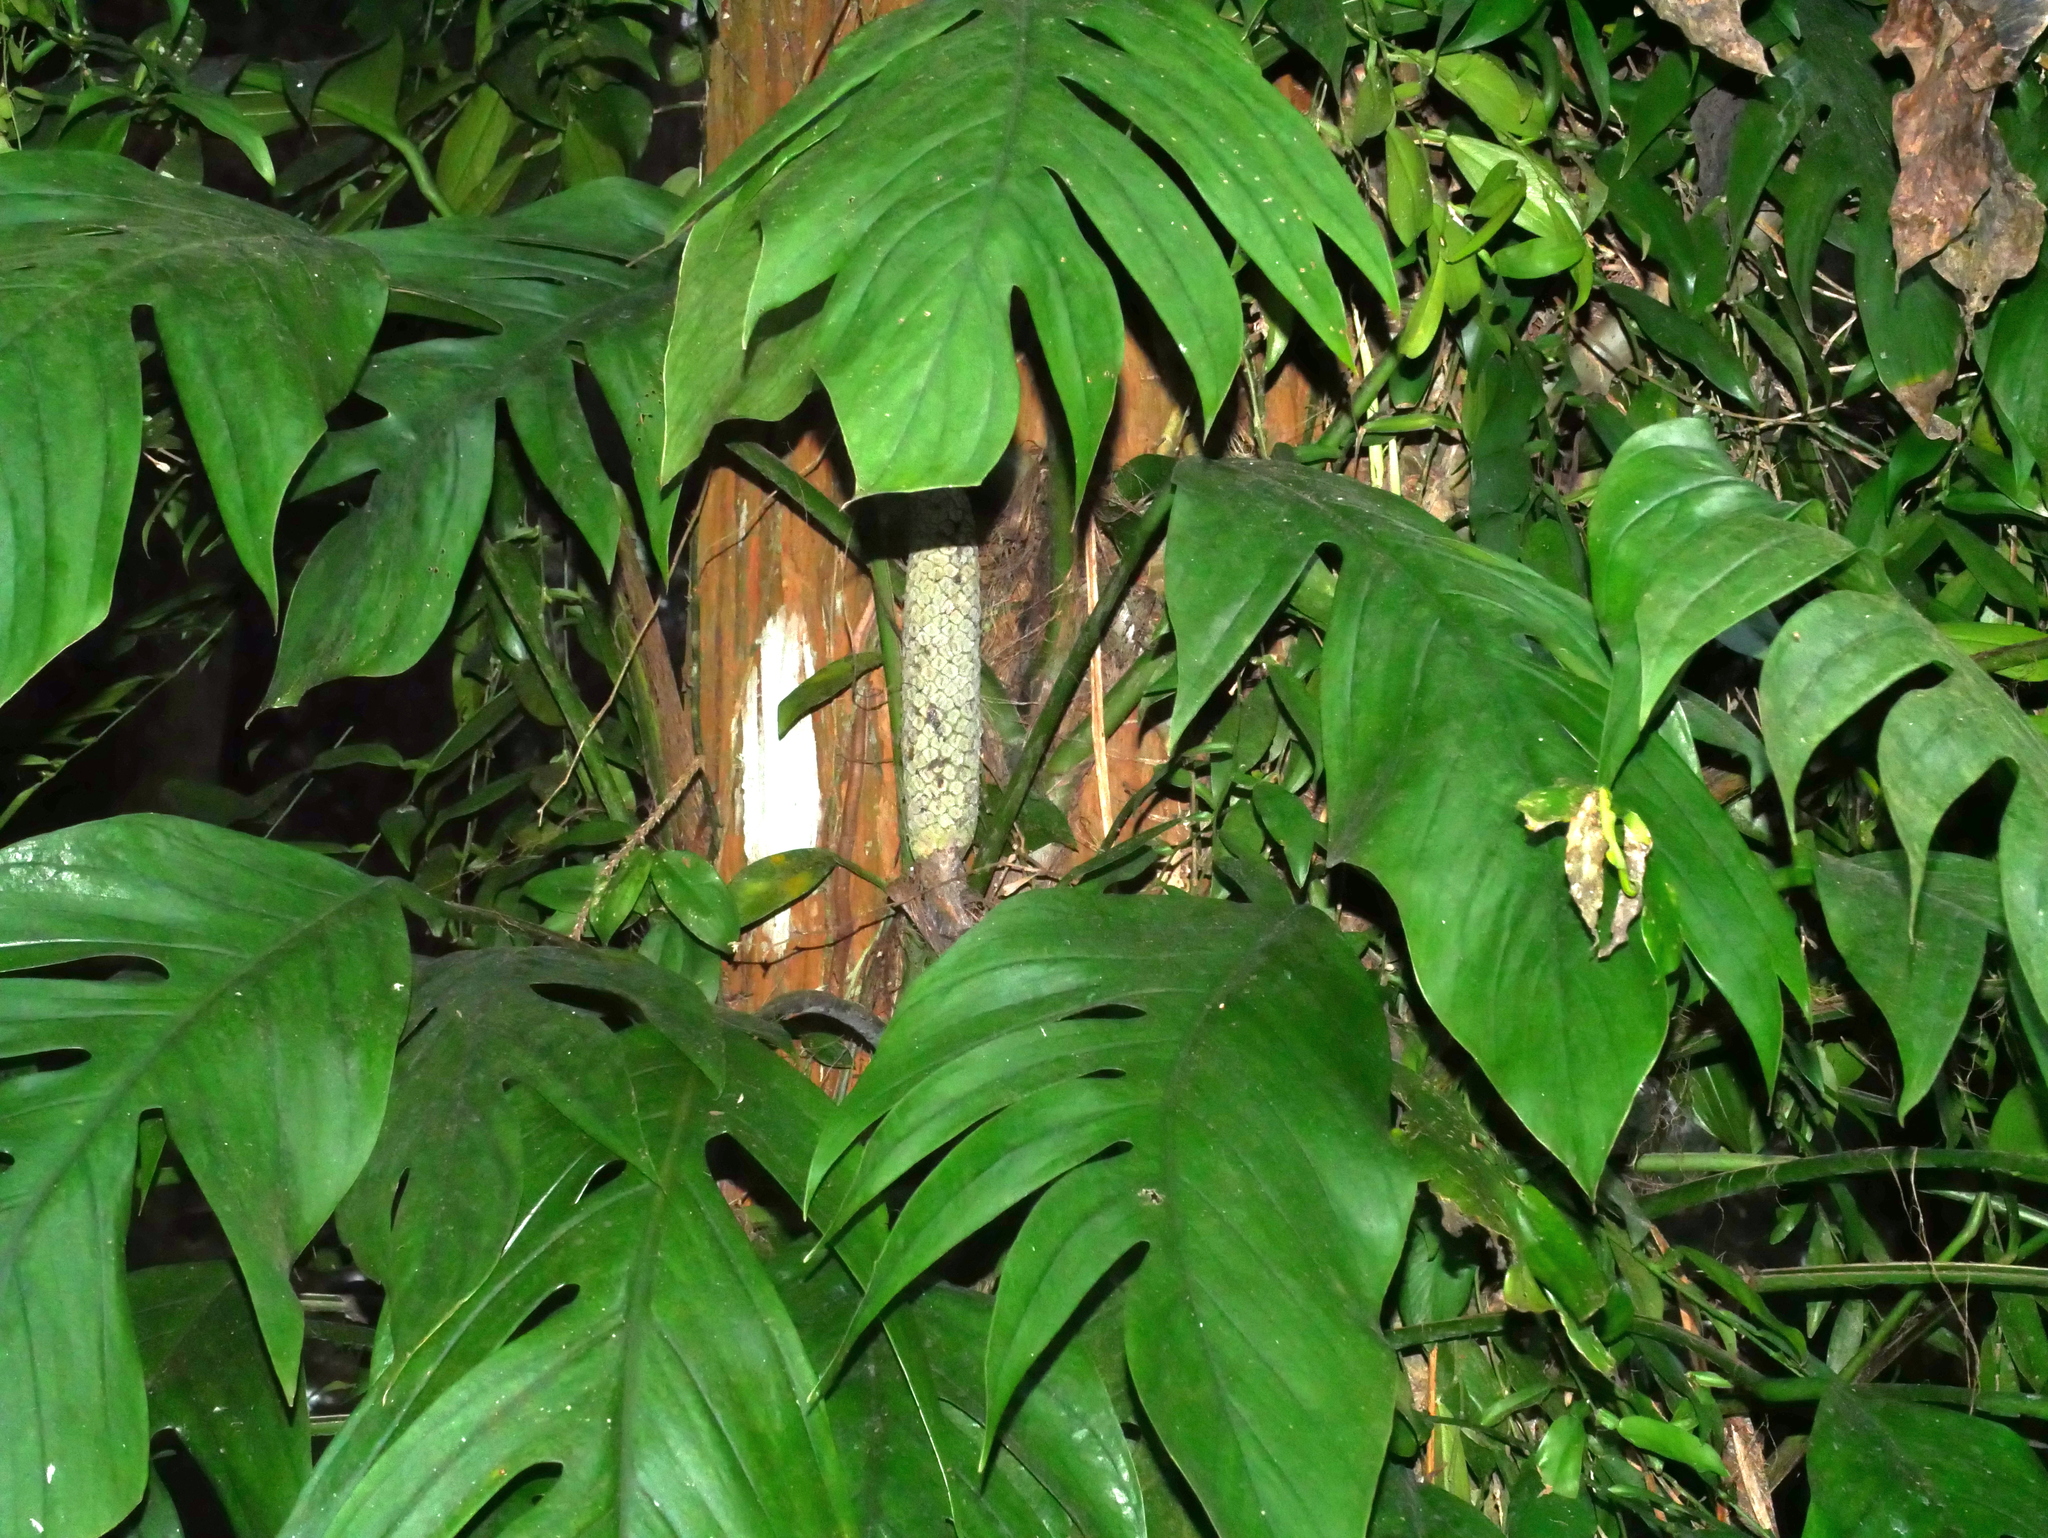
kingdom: Plantae
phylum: Tracheophyta
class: Liliopsida
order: Alismatales
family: Araceae
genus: Epipremnum
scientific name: Epipremnum pinnatum
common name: Centipede tongavine
